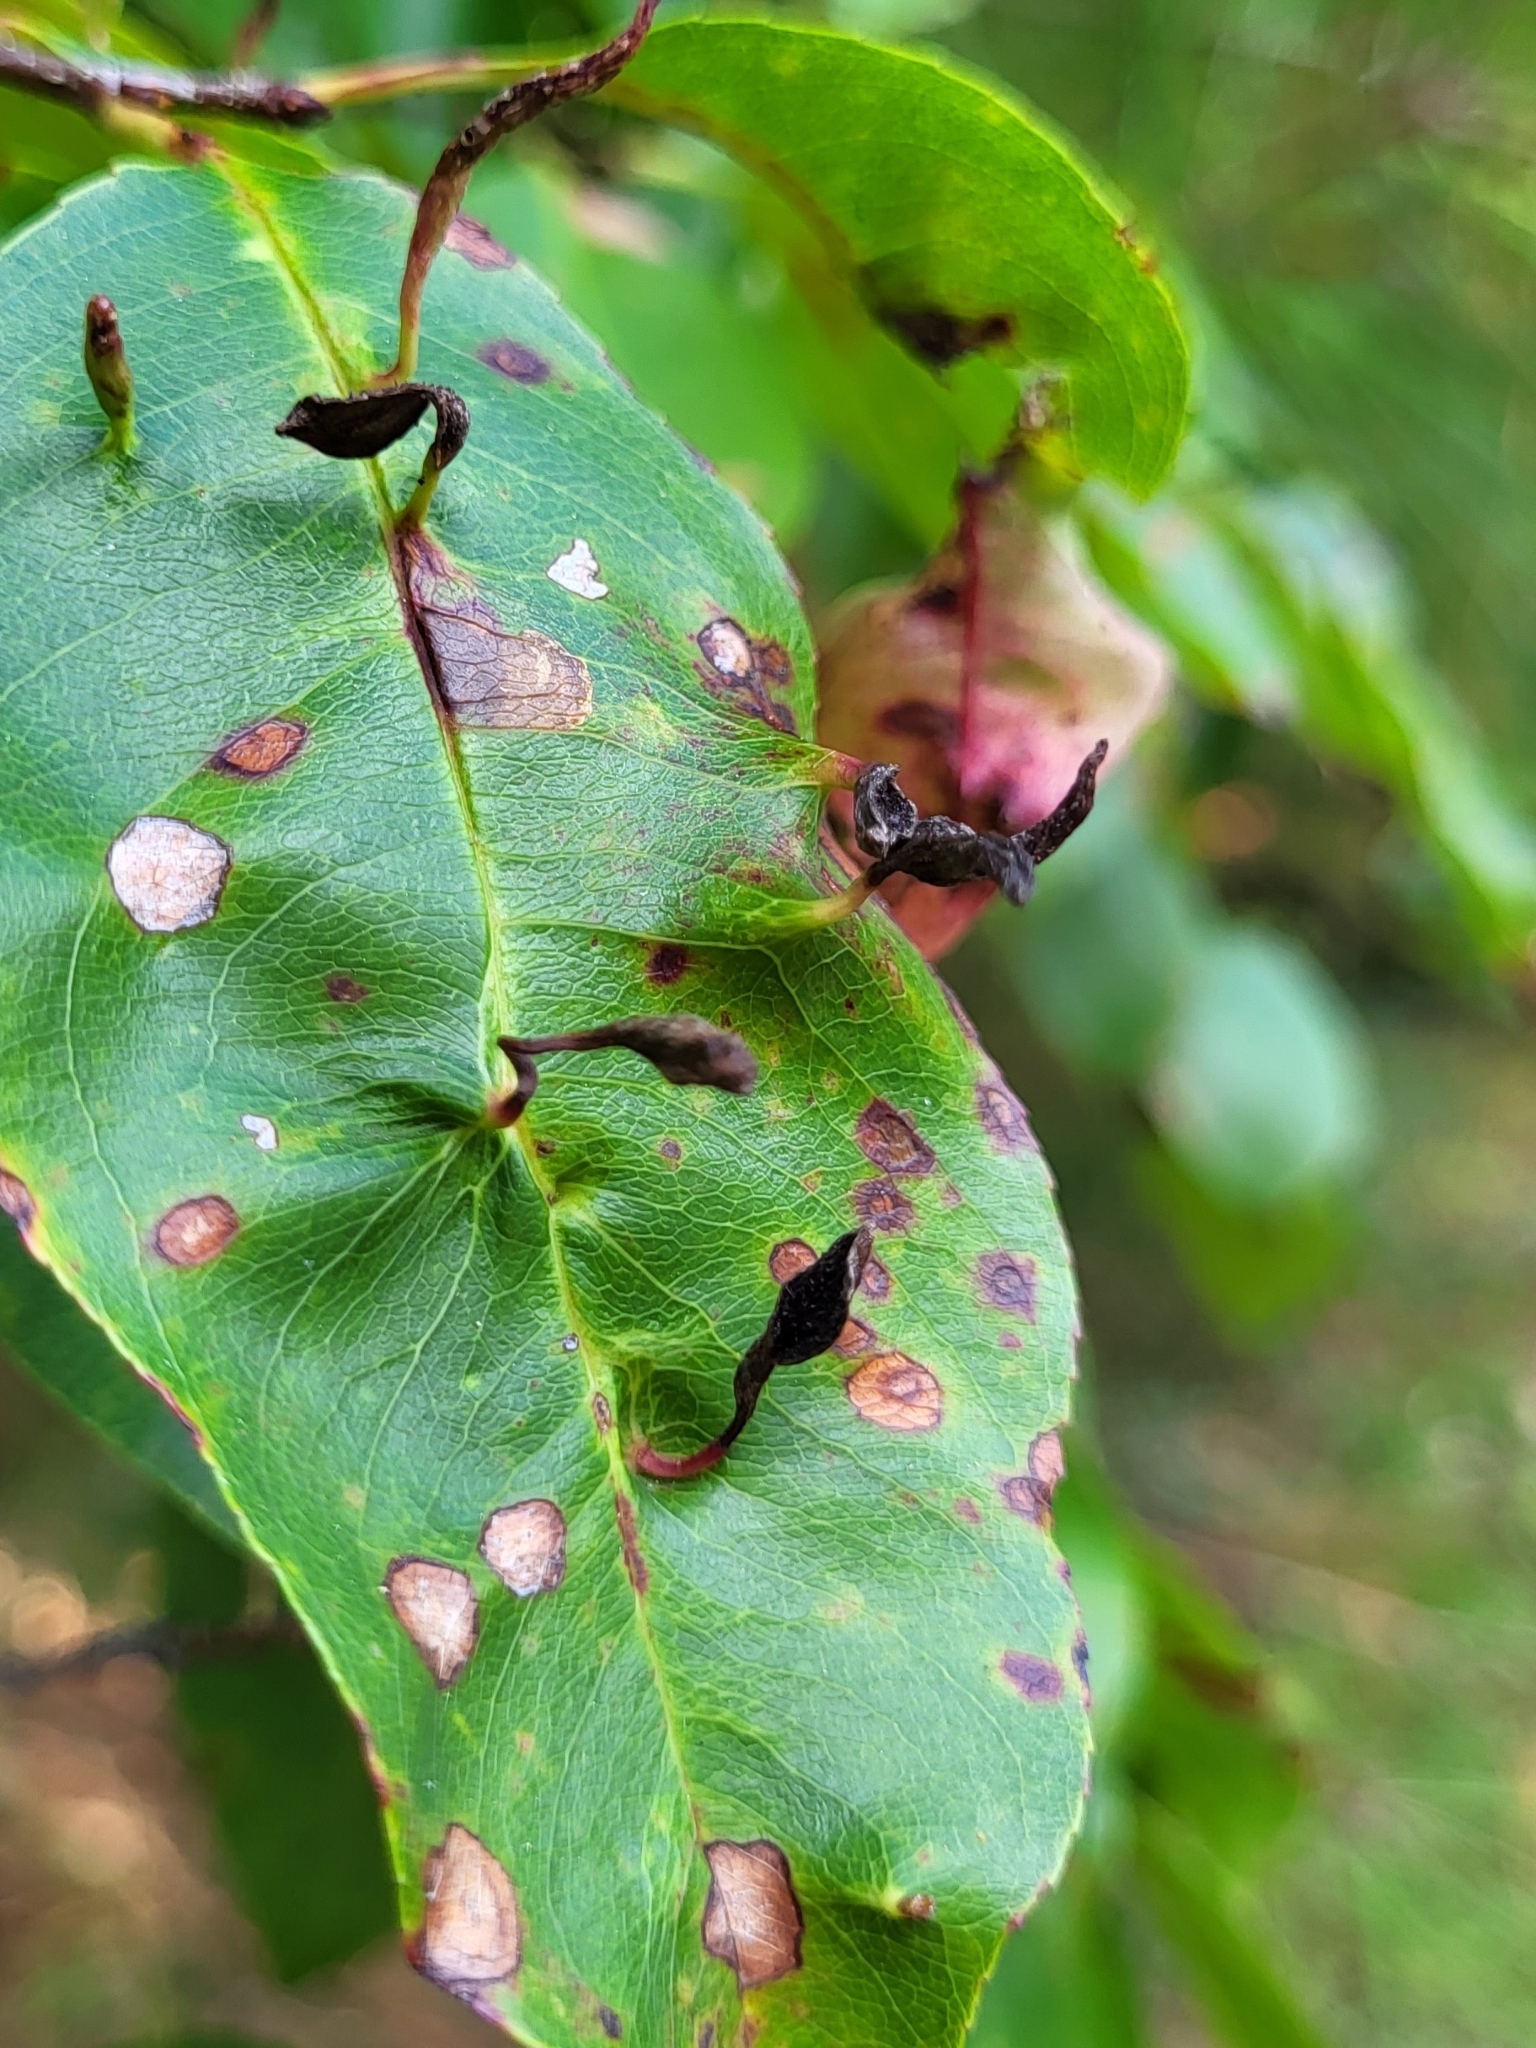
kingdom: Animalia
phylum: Arthropoda
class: Arachnida
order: Trombidiformes
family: Eriophyidae
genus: Eriophyes
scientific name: Eriophyes
